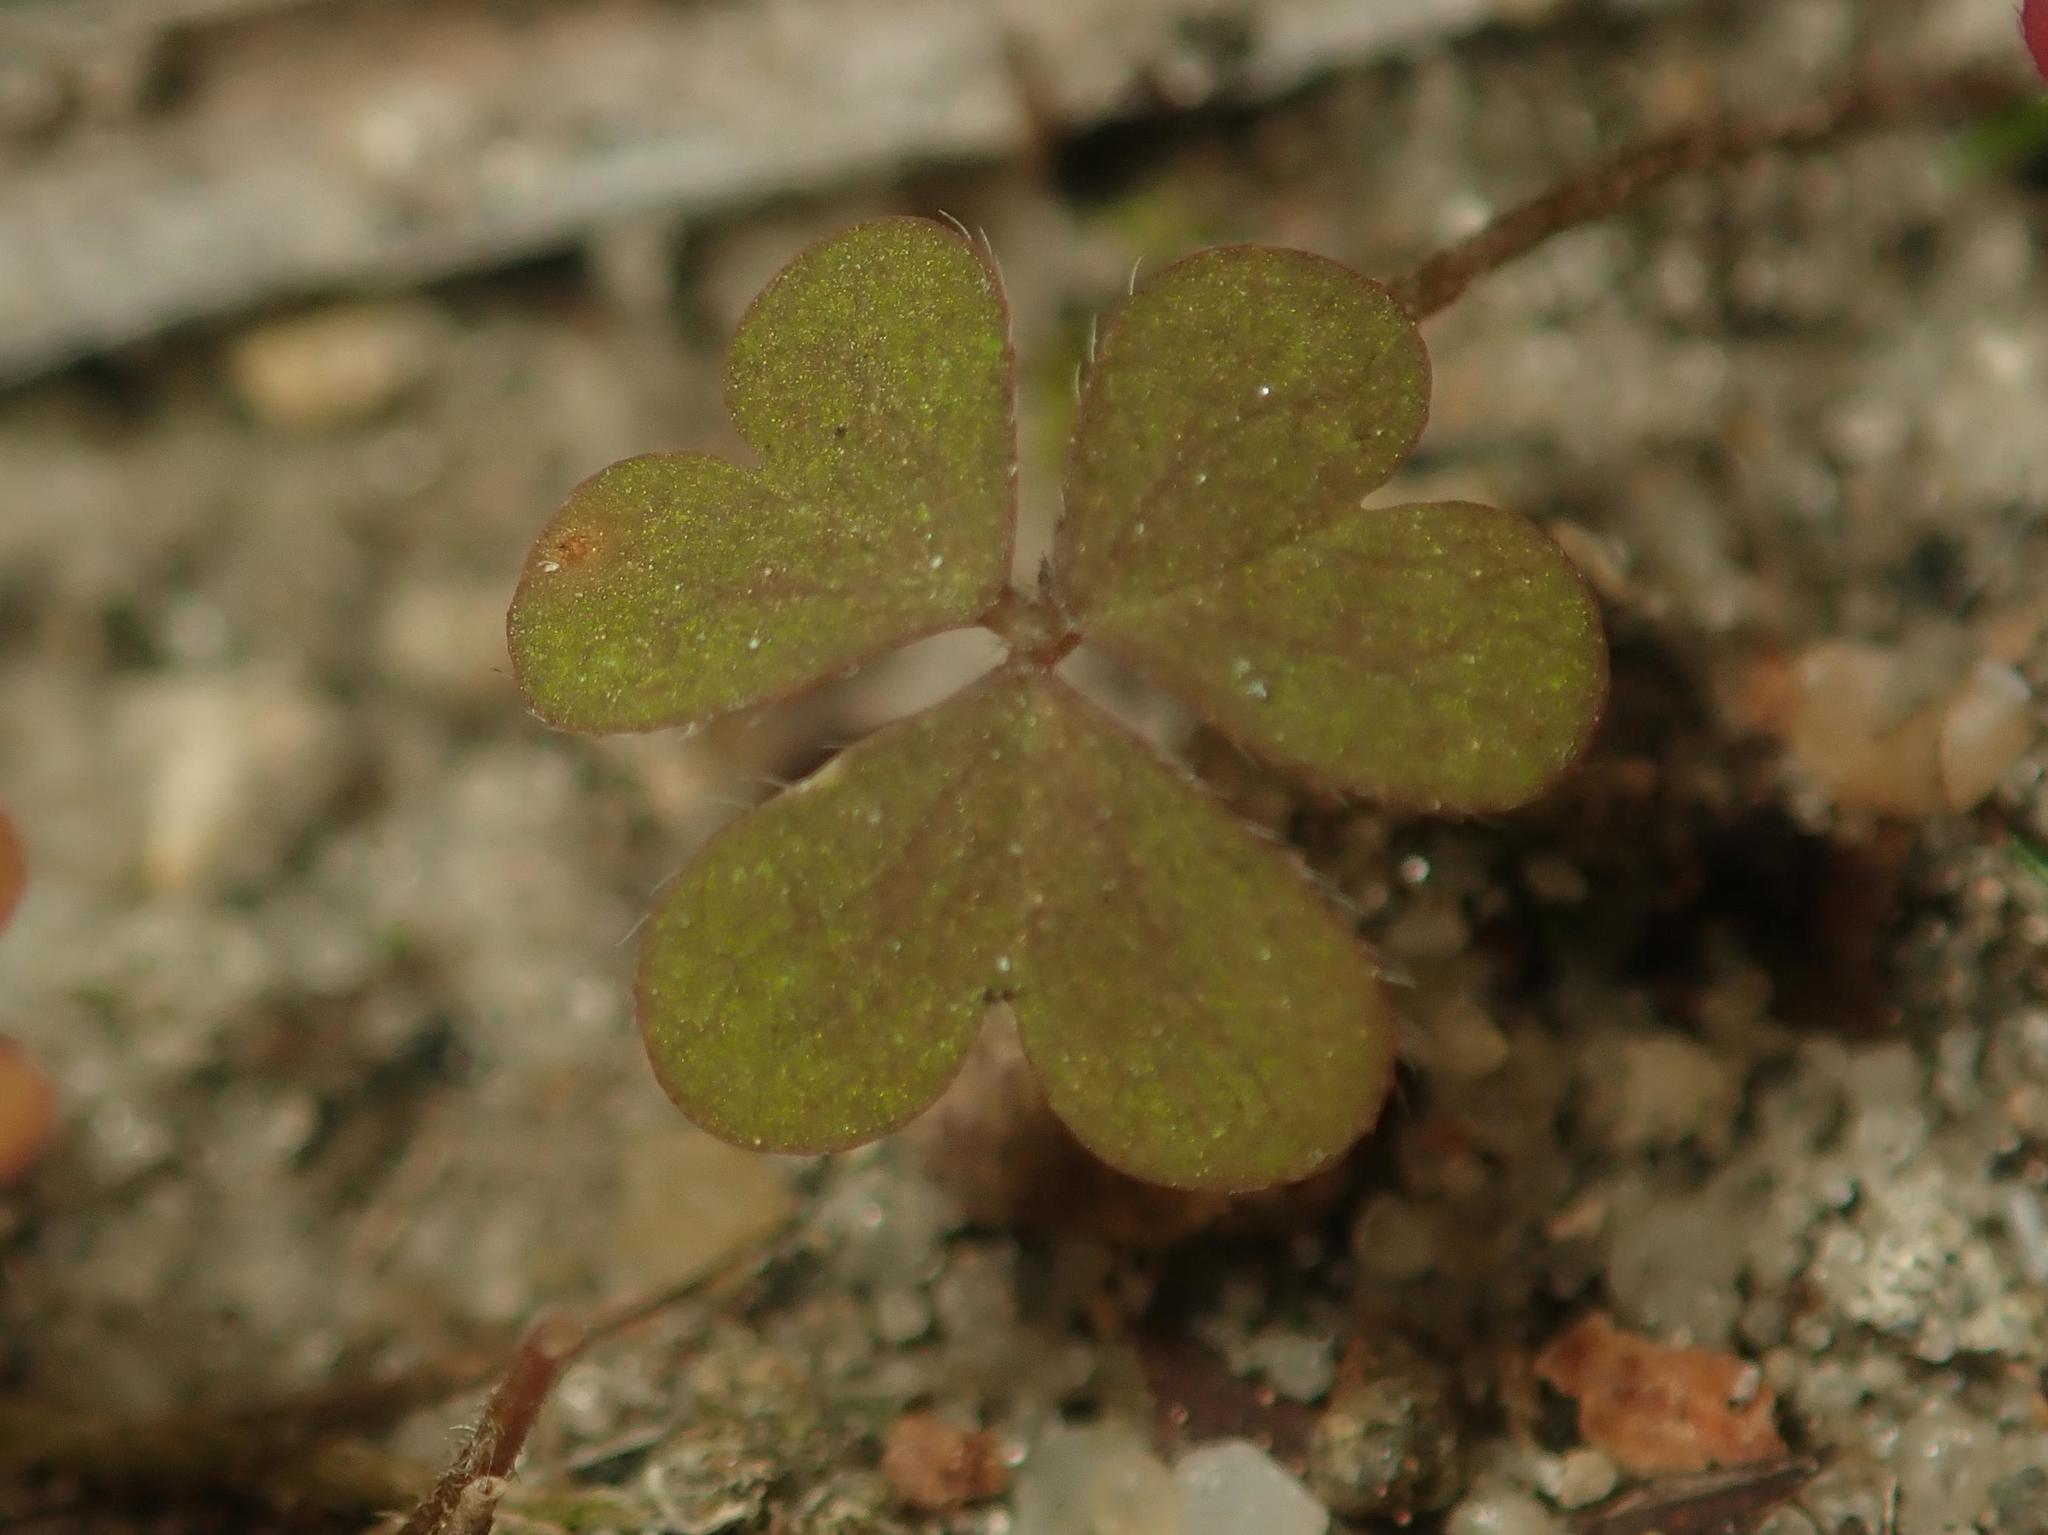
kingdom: Plantae
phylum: Tracheophyta
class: Magnoliopsida
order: Oxalidales
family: Oxalidaceae
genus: Oxalis
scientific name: Oxalis corniculata
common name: Procumbent yellow-sorrel
